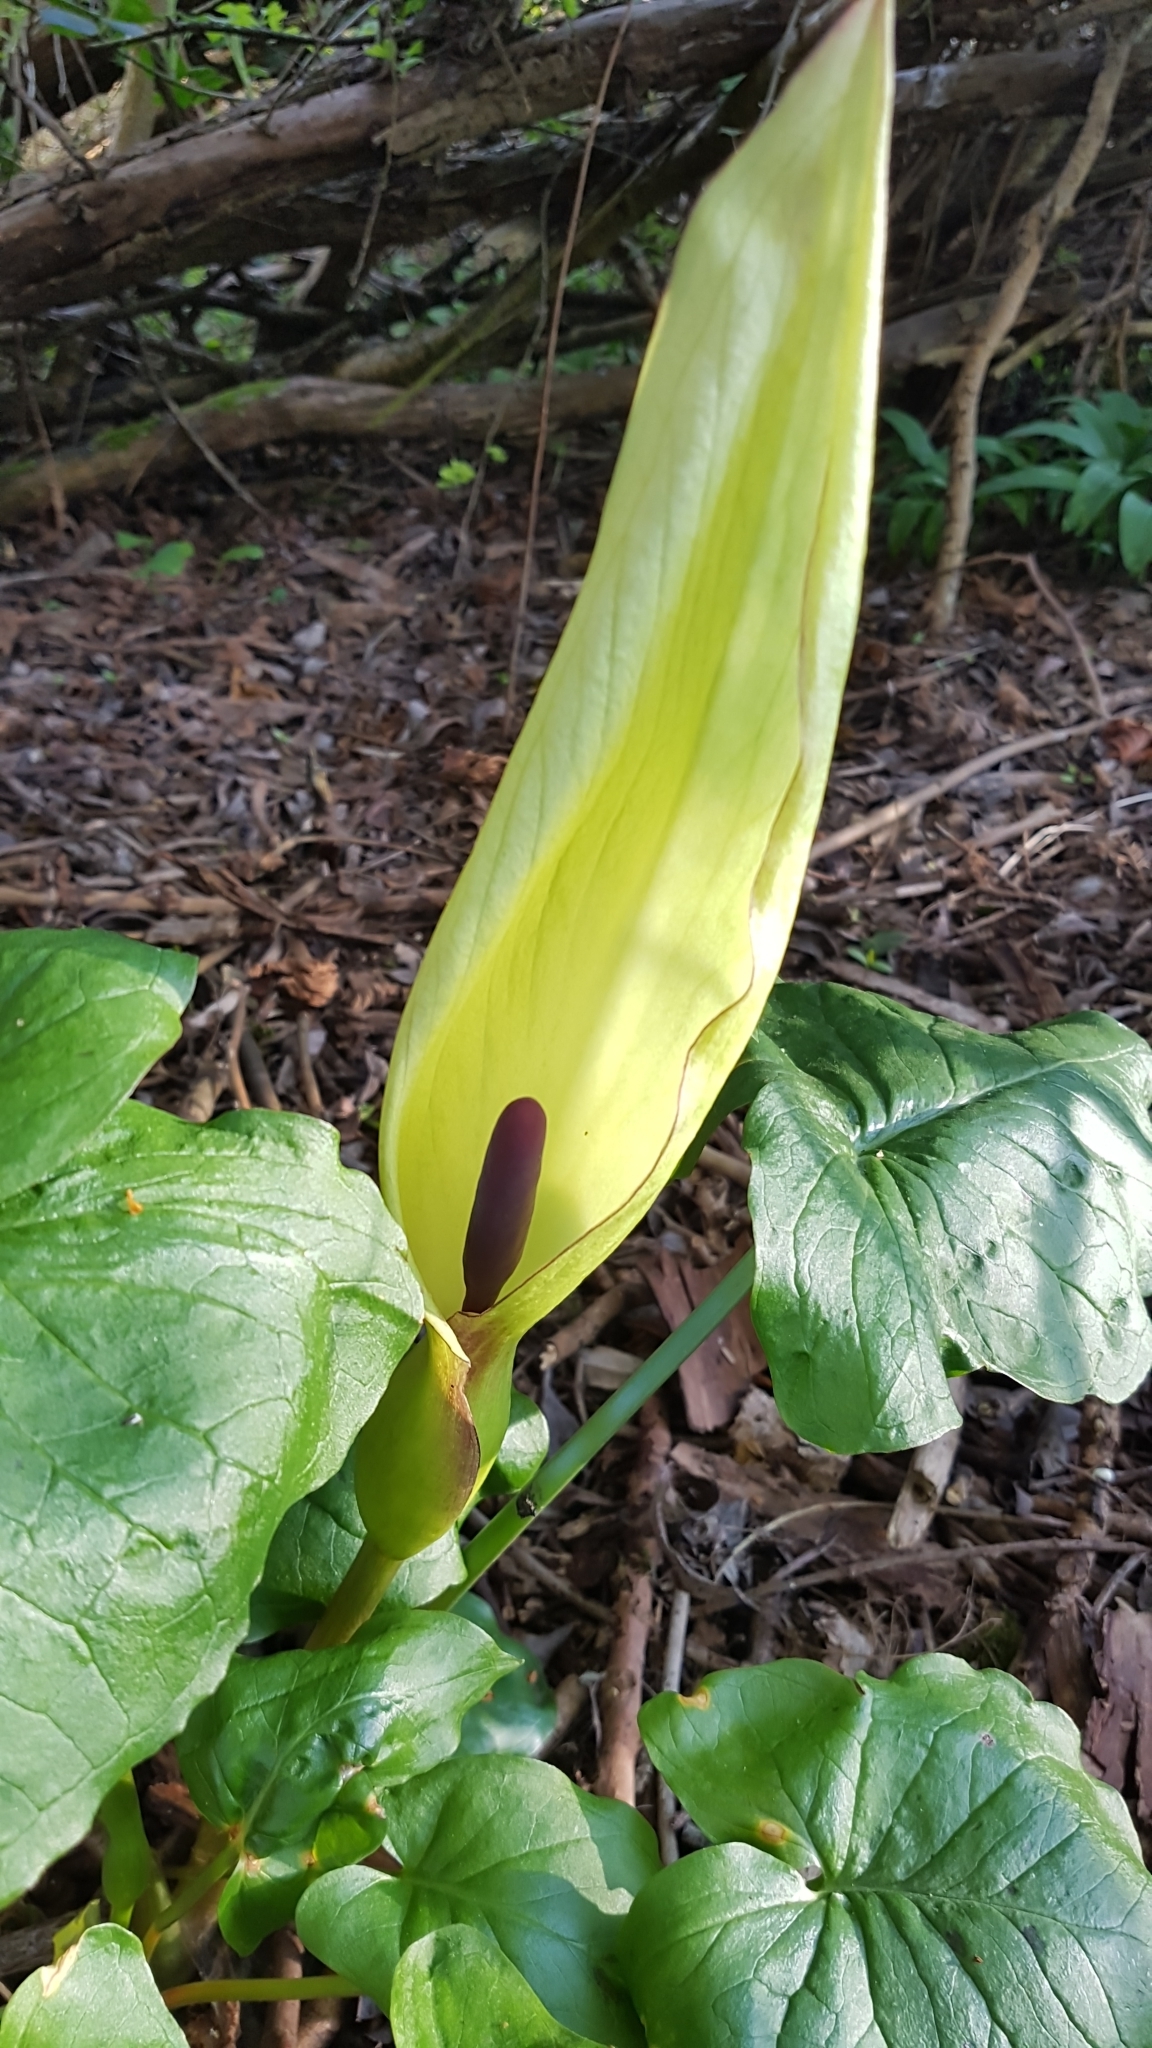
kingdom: Plantae
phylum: Tracheophyta
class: Liliopsida
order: Alismatales
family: Araceae
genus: Arum
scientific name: Arum maculatum
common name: Lords-and-ladies
